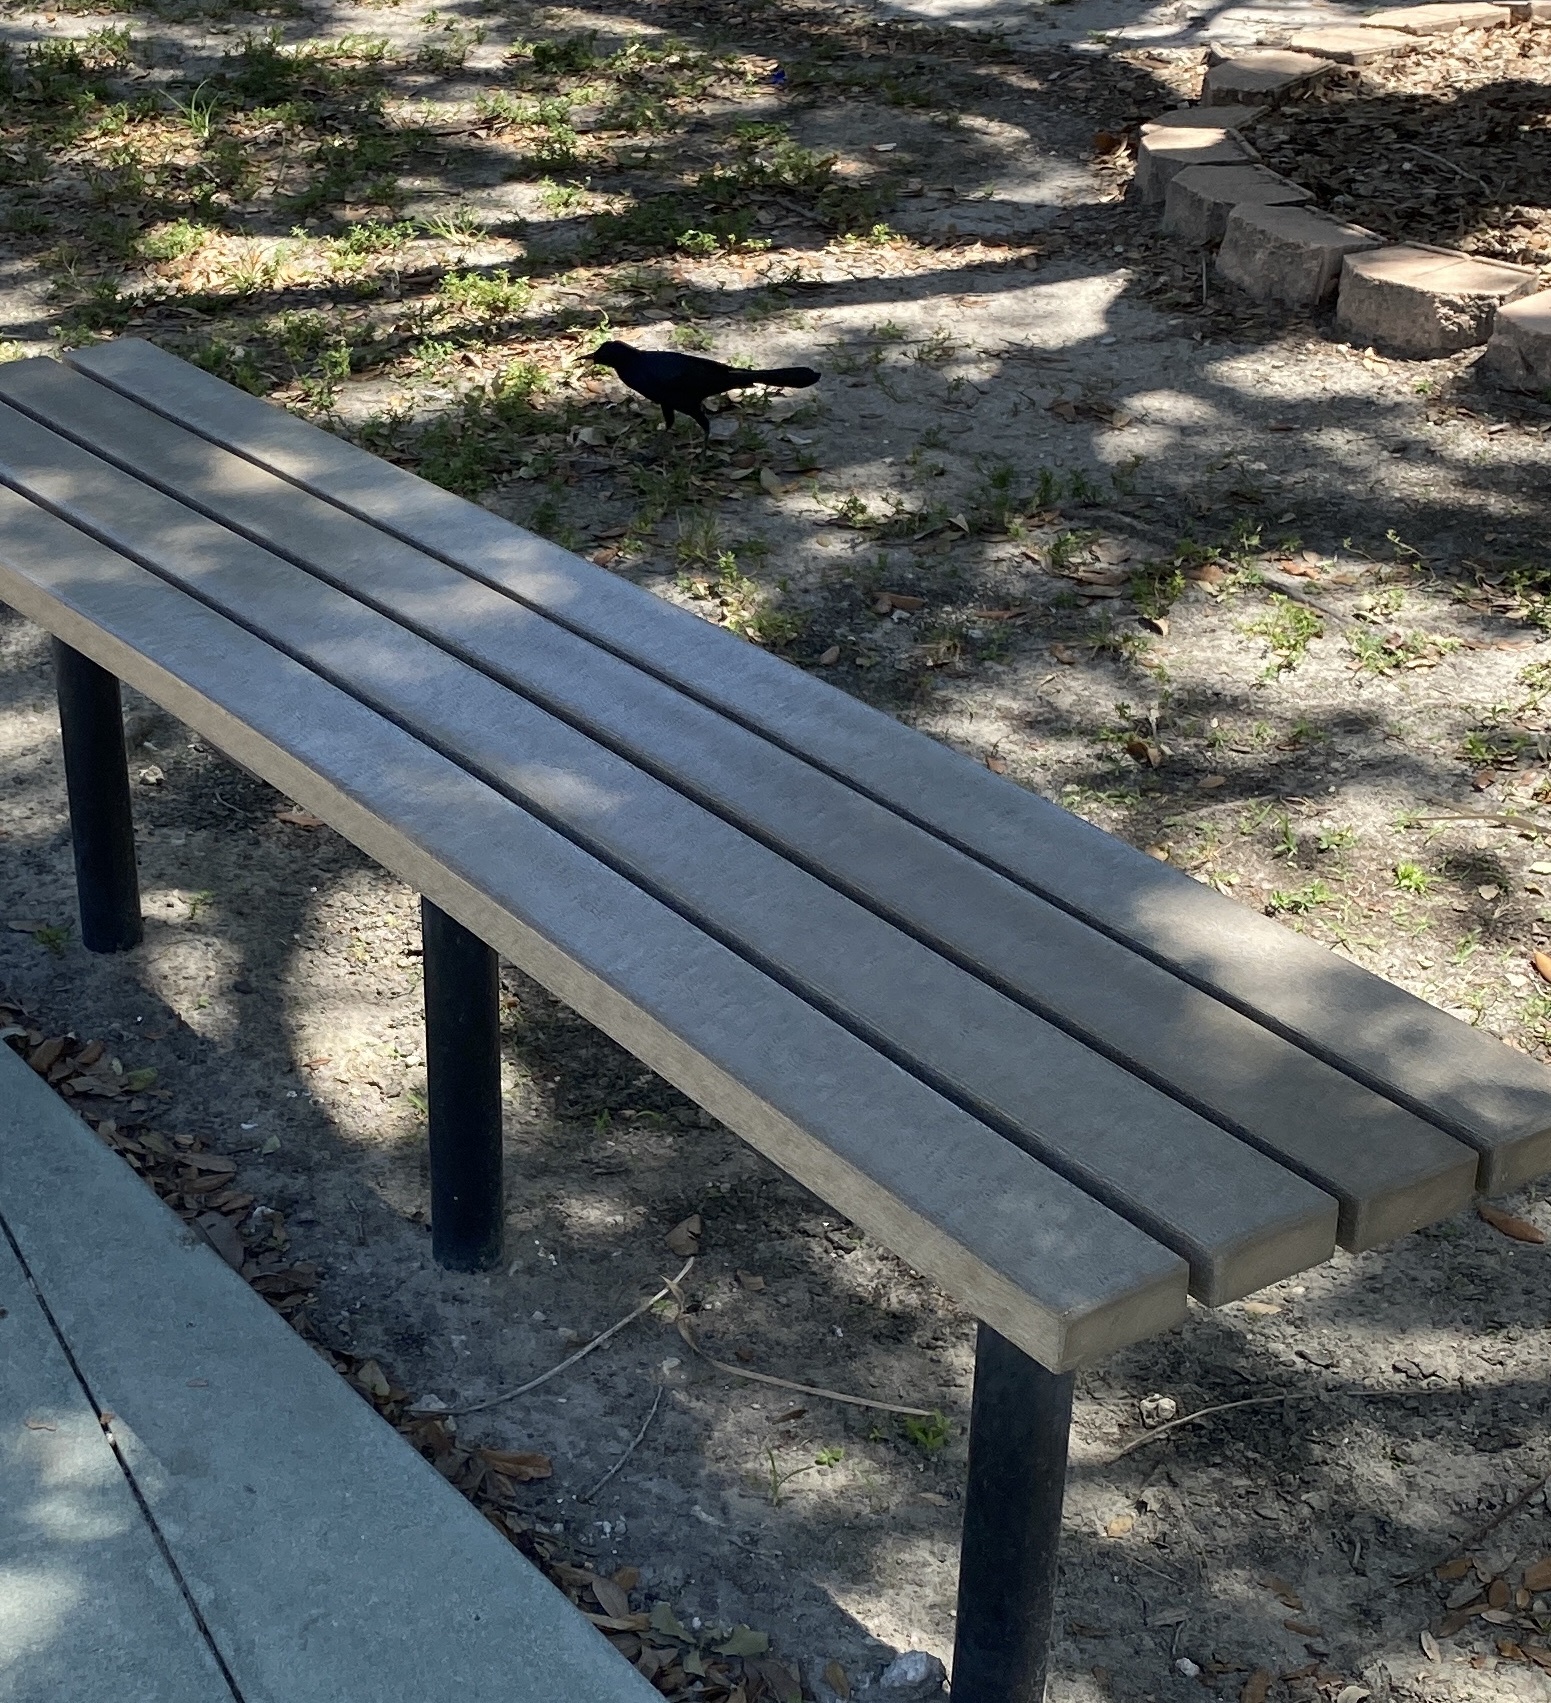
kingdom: Animalia
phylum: Chordata
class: Aves
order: Passeriformes
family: Icteridae
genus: Quiscalus
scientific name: Quiscalus major
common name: Boat-tailed grackle
